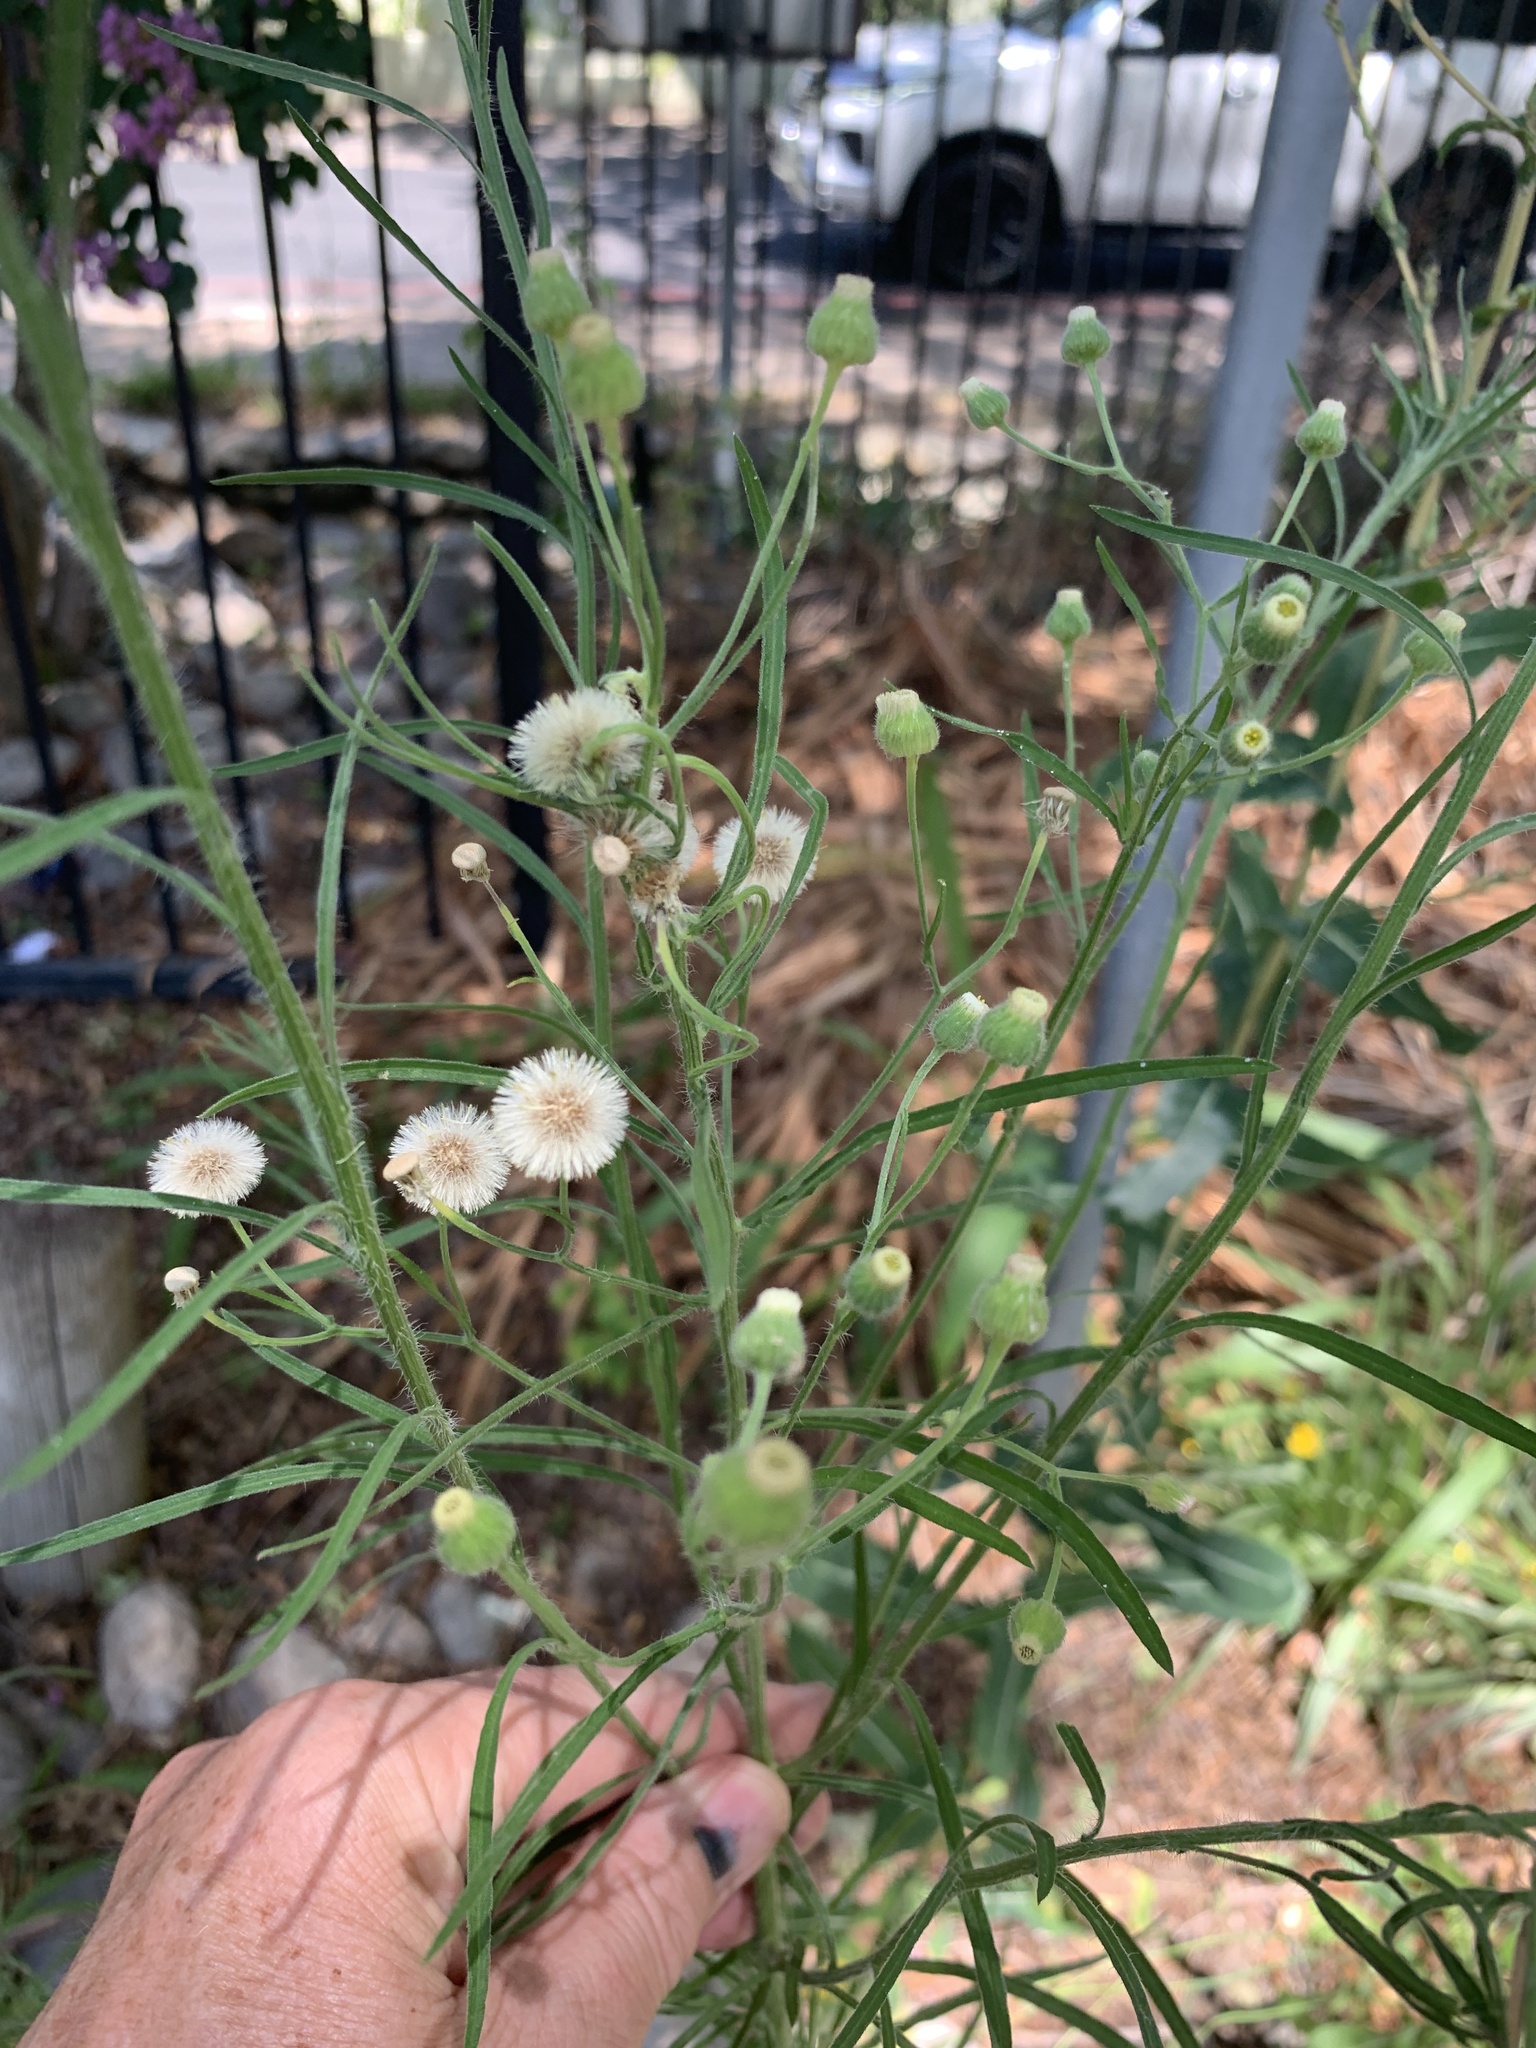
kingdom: Plantae
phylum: Tracheophyta
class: Magnoliopsida
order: Asterales
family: Asteraceae
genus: Erigeron
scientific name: Erigeron bonariensis
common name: Argentine fleabane
